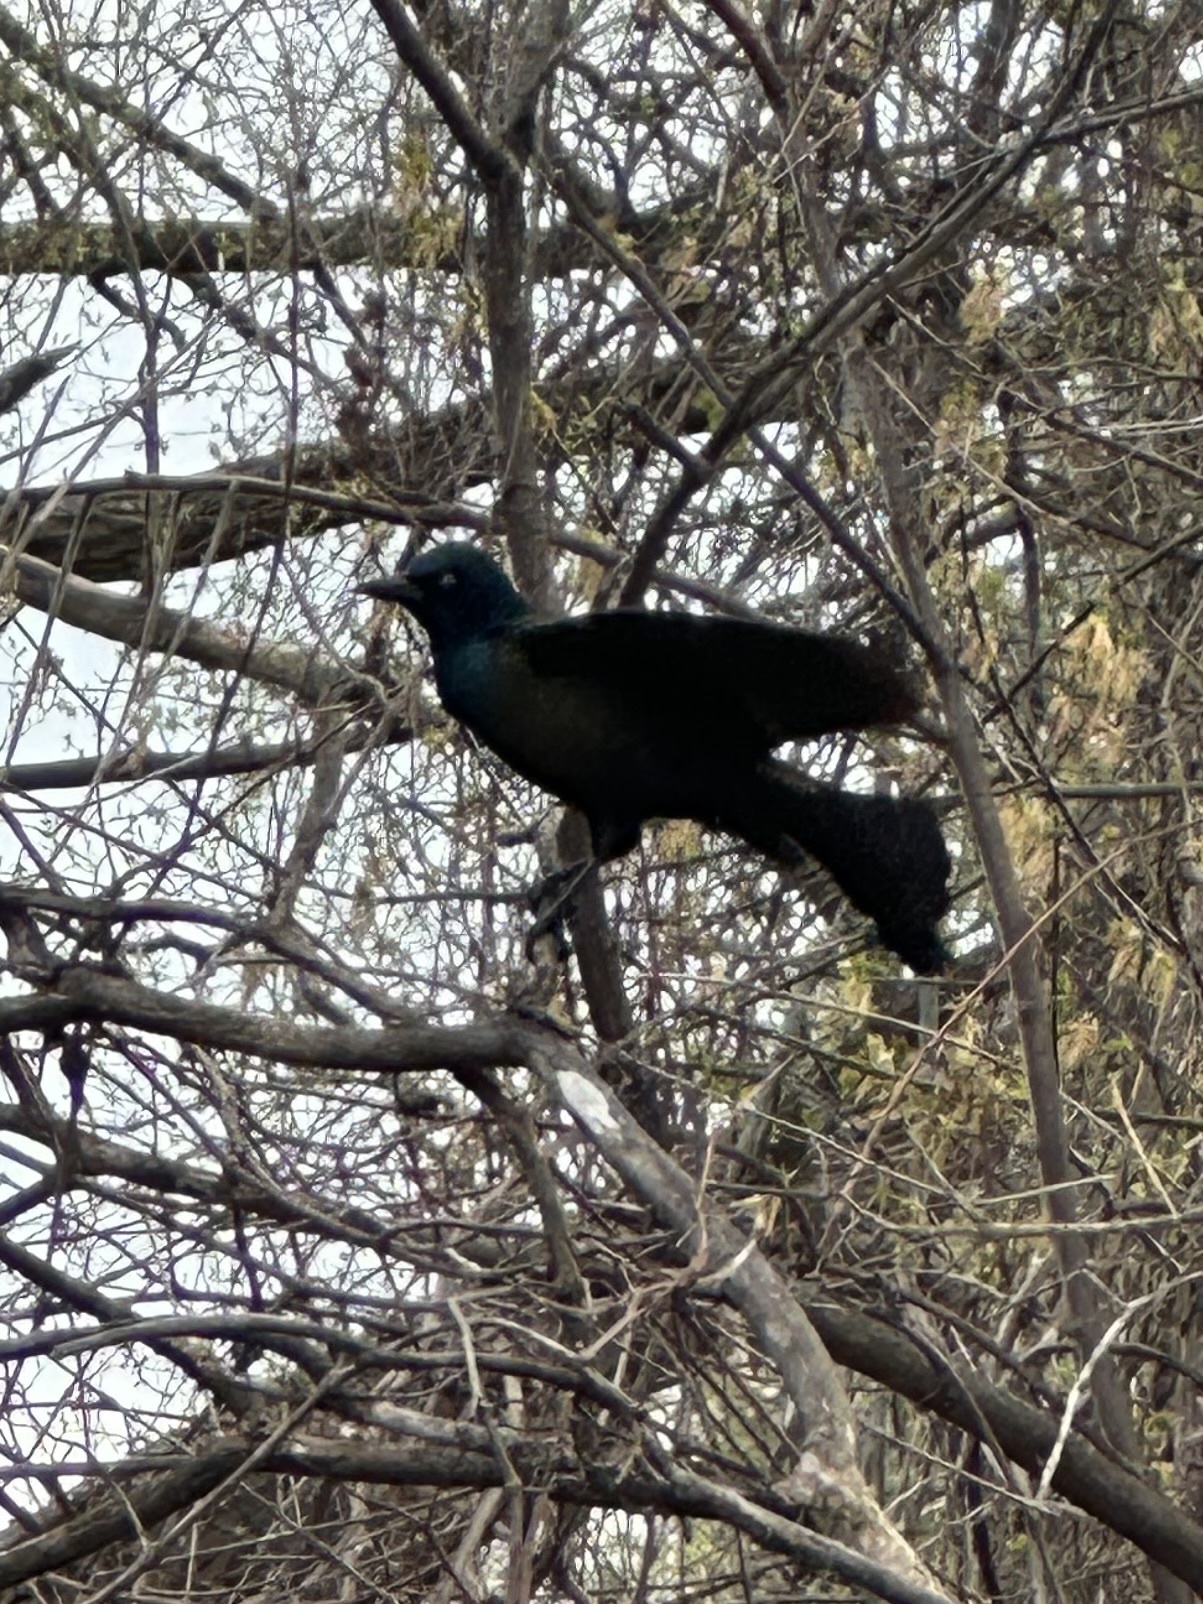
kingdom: Animalia
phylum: Chordata
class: Aves
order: Passeriformes
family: Icteridae
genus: Quiscalus
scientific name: Quiscalus quiscula
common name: Common grackle
